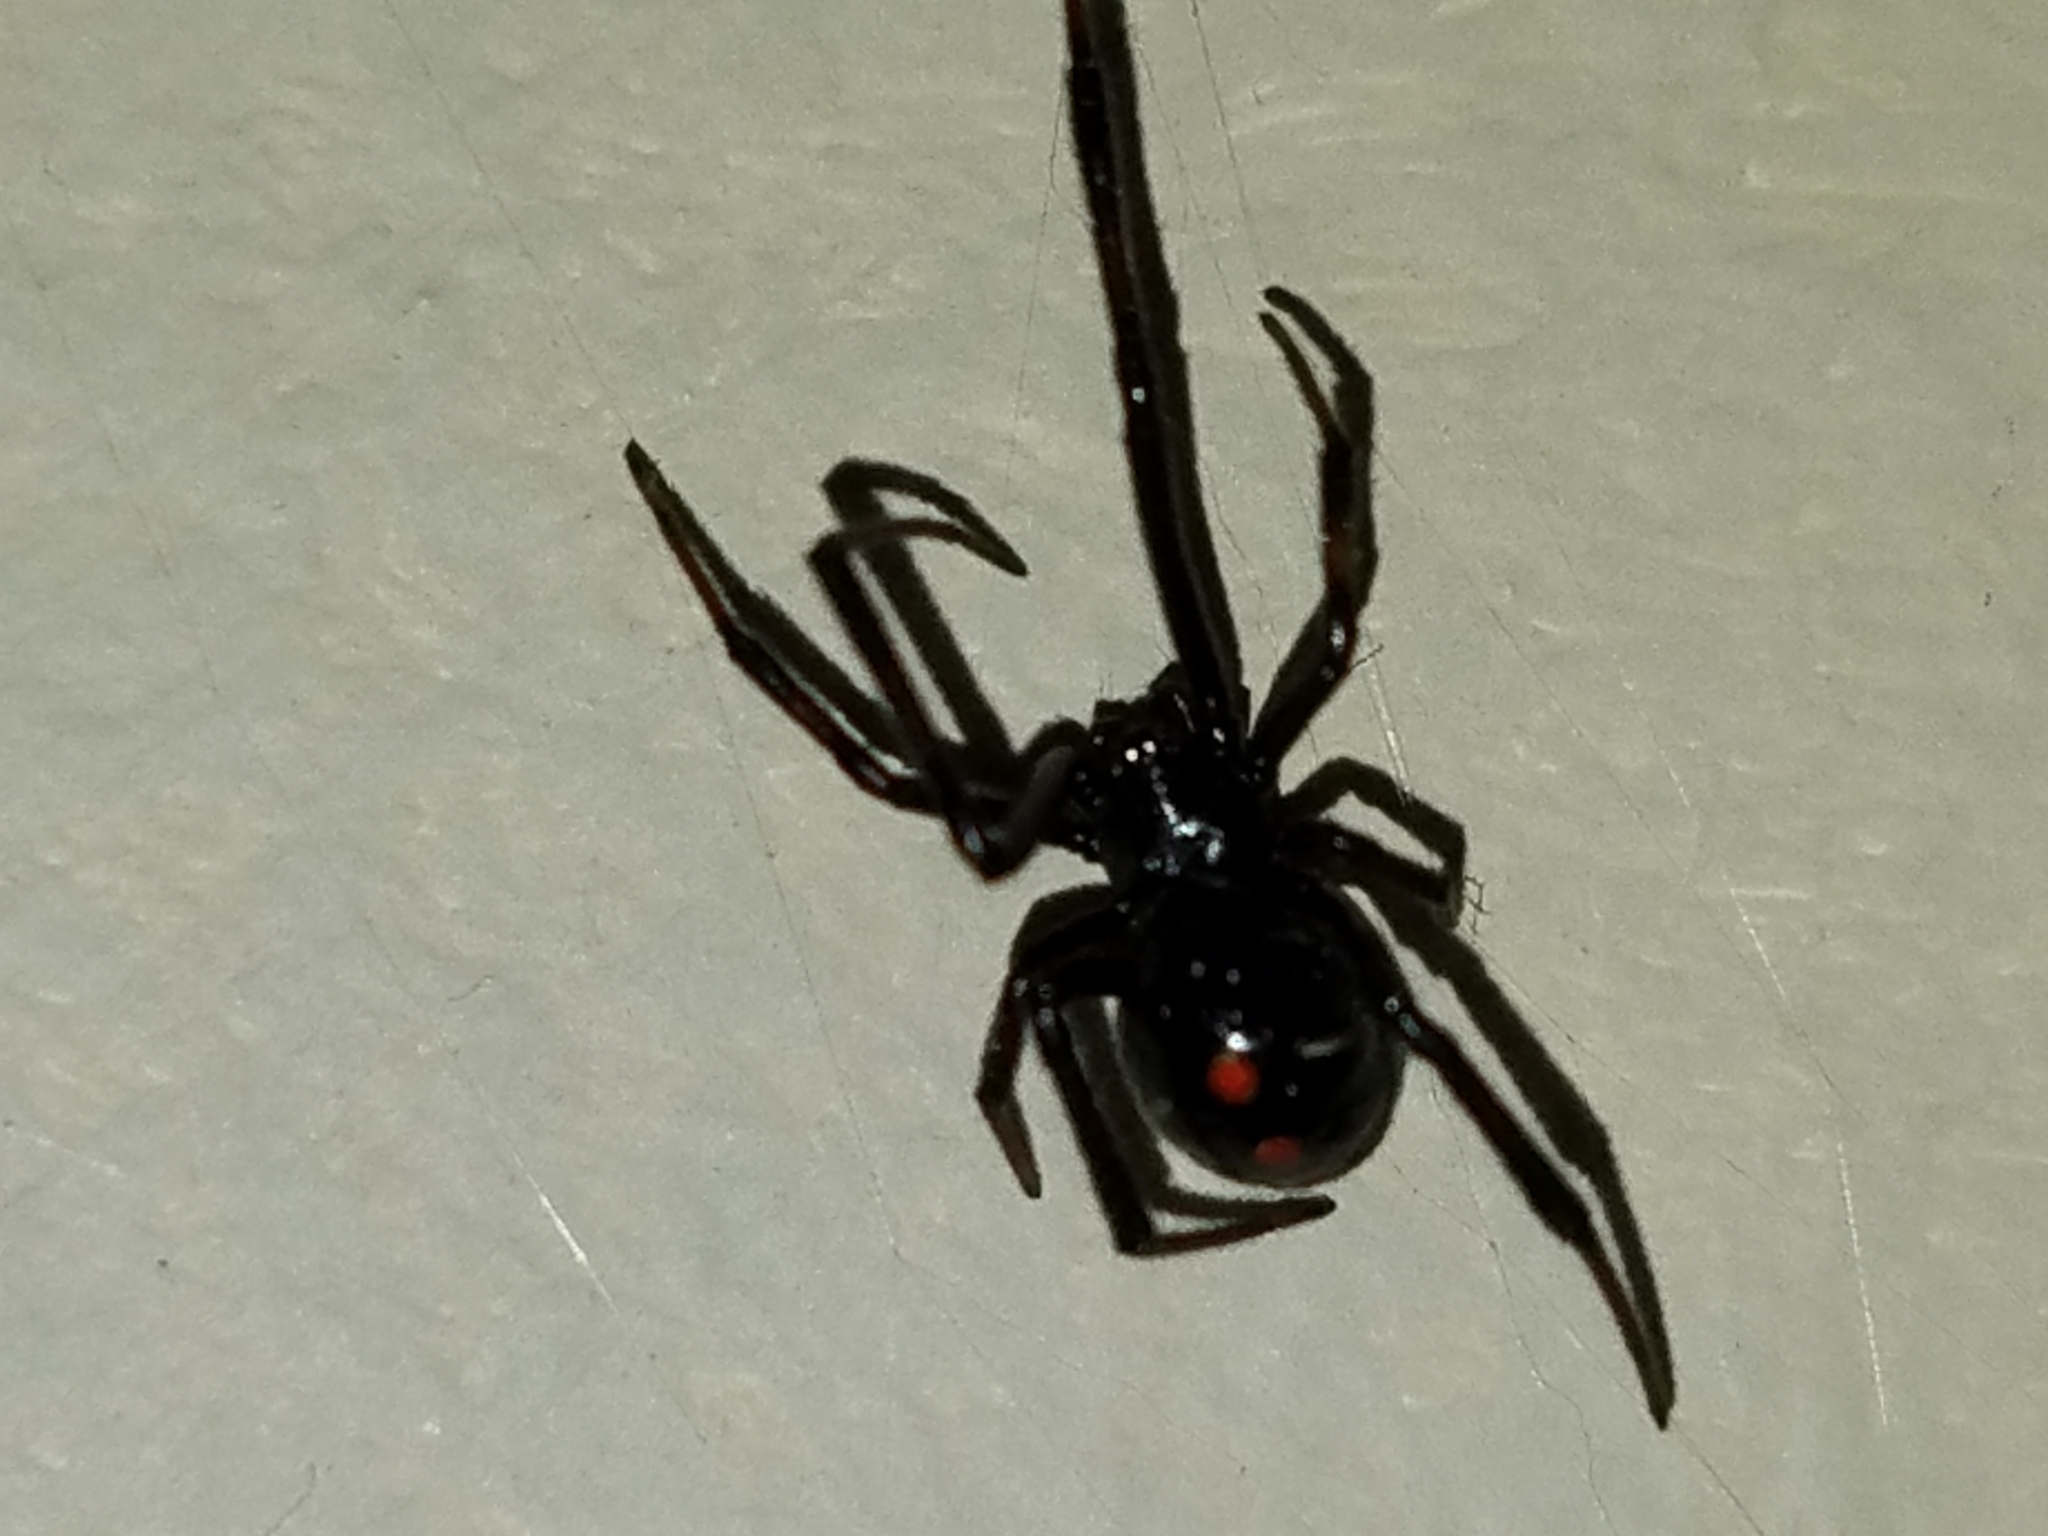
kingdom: Animalia
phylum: Arthropoda
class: Arachnida
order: Araneae
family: Theridiidae
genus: Latrodectus
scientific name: Latrodectus variolus
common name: Northern black widow
